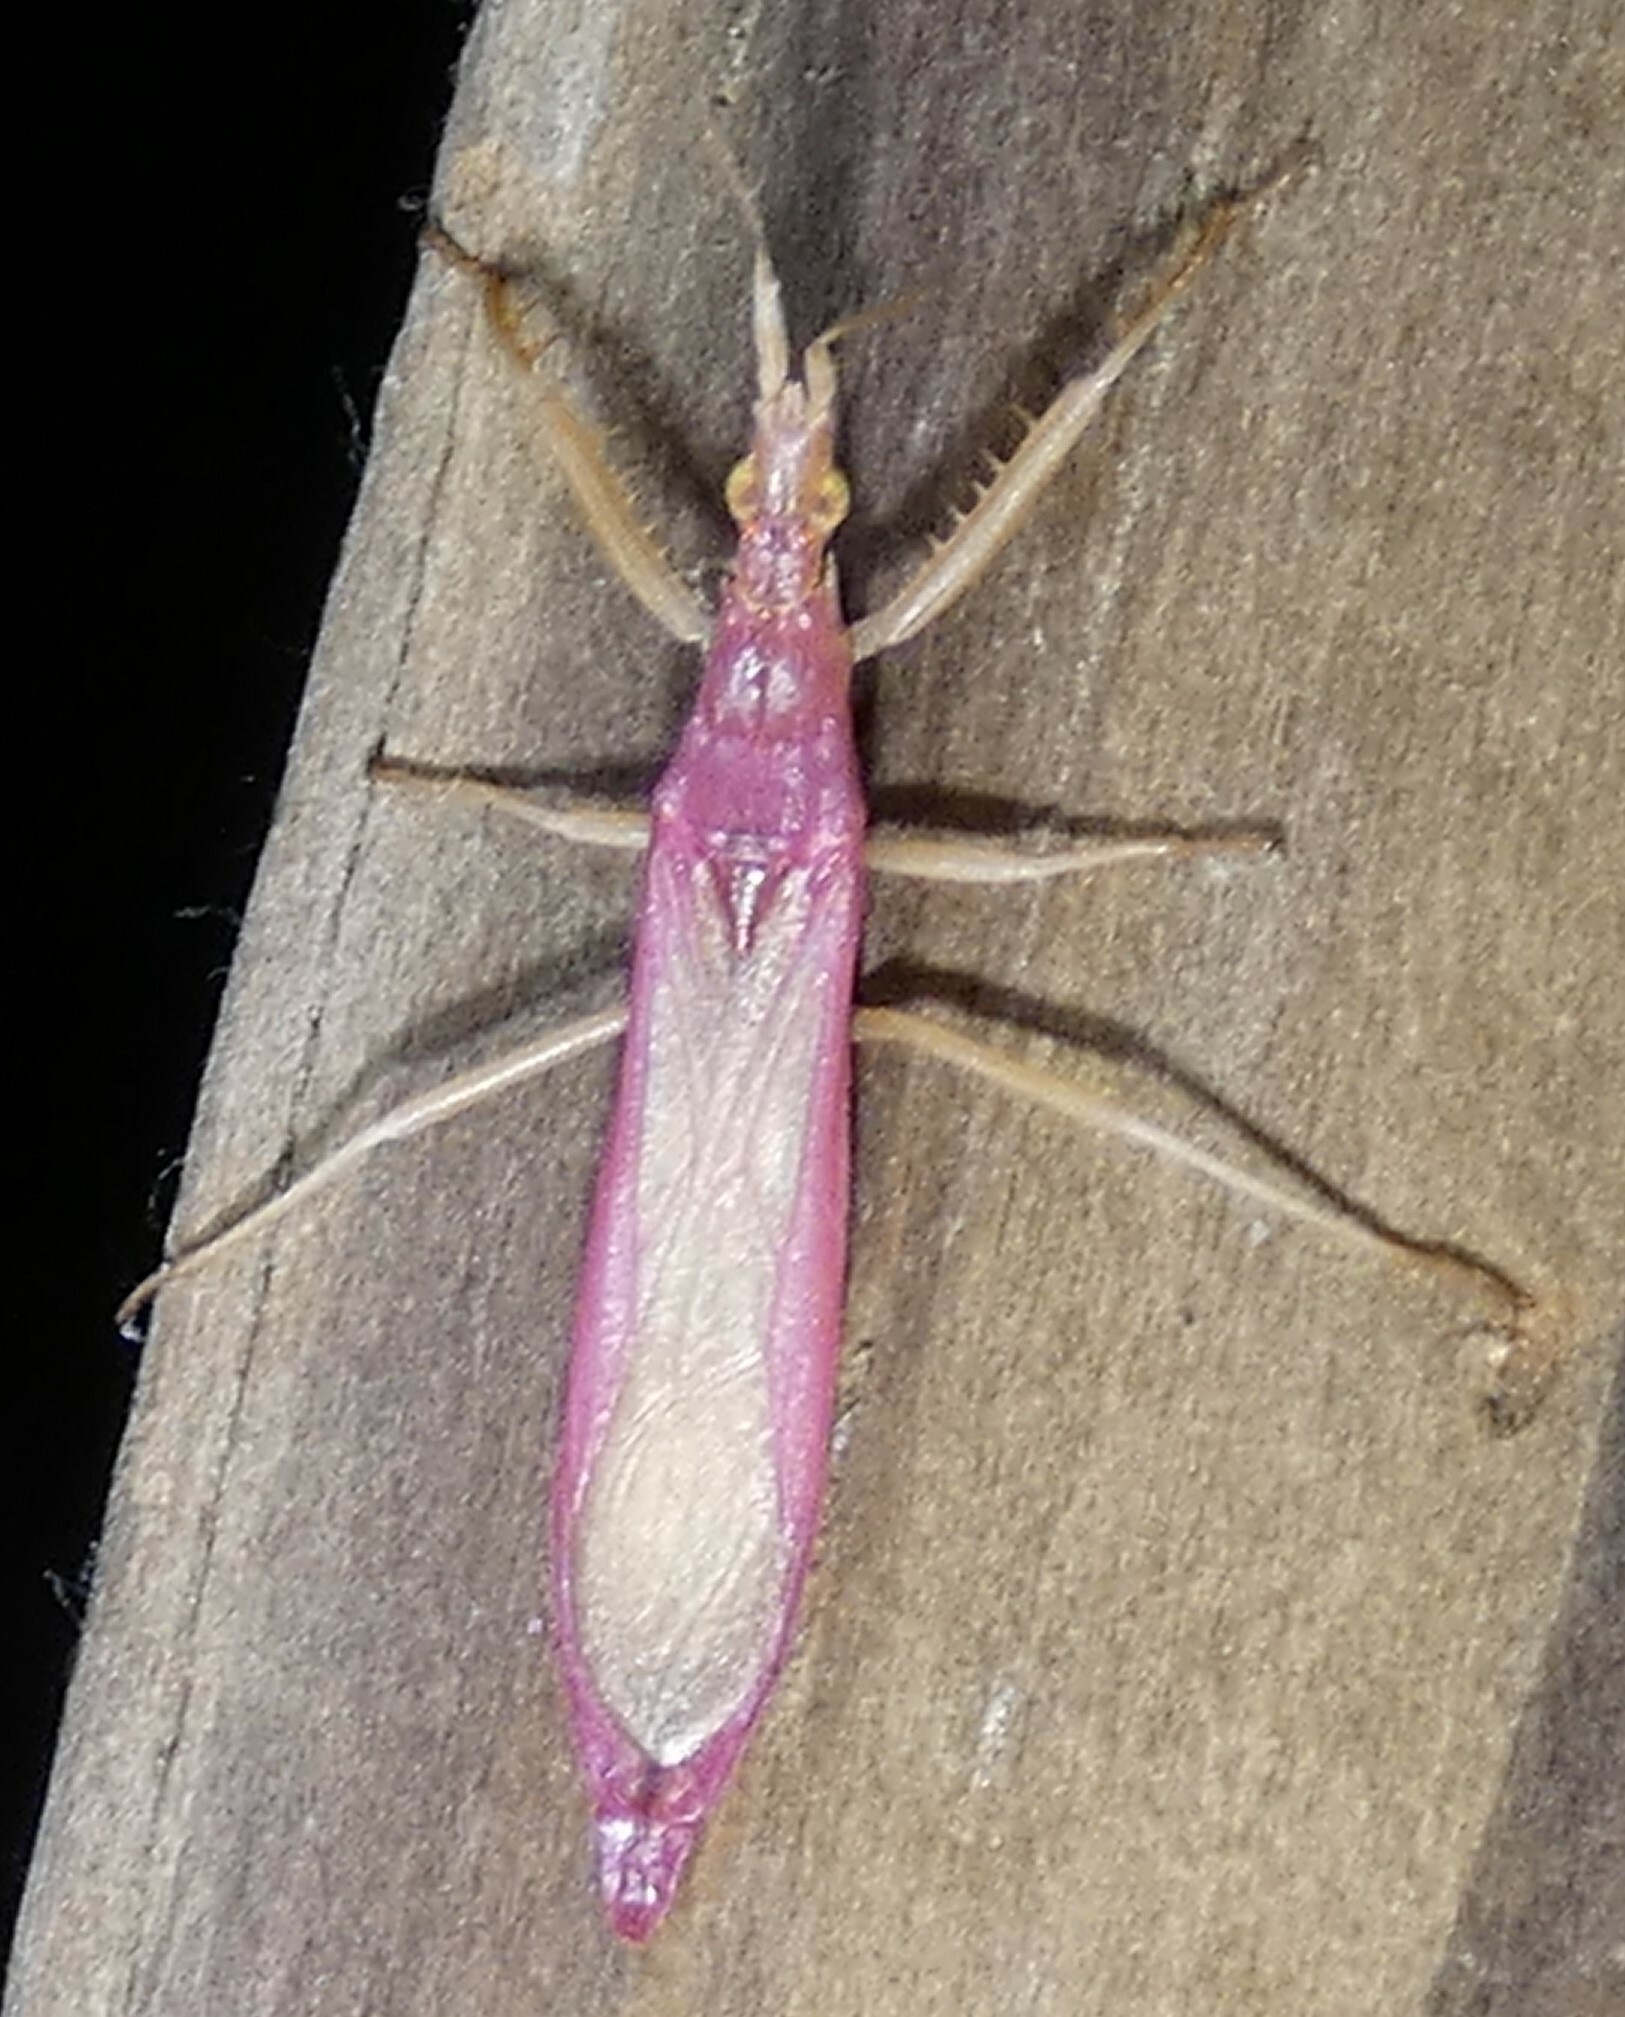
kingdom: Animalia
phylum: Arthropoda
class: Insecta
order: Hemiptera
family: Reduviidae
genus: Pnirontis
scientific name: Pnirontis languida
